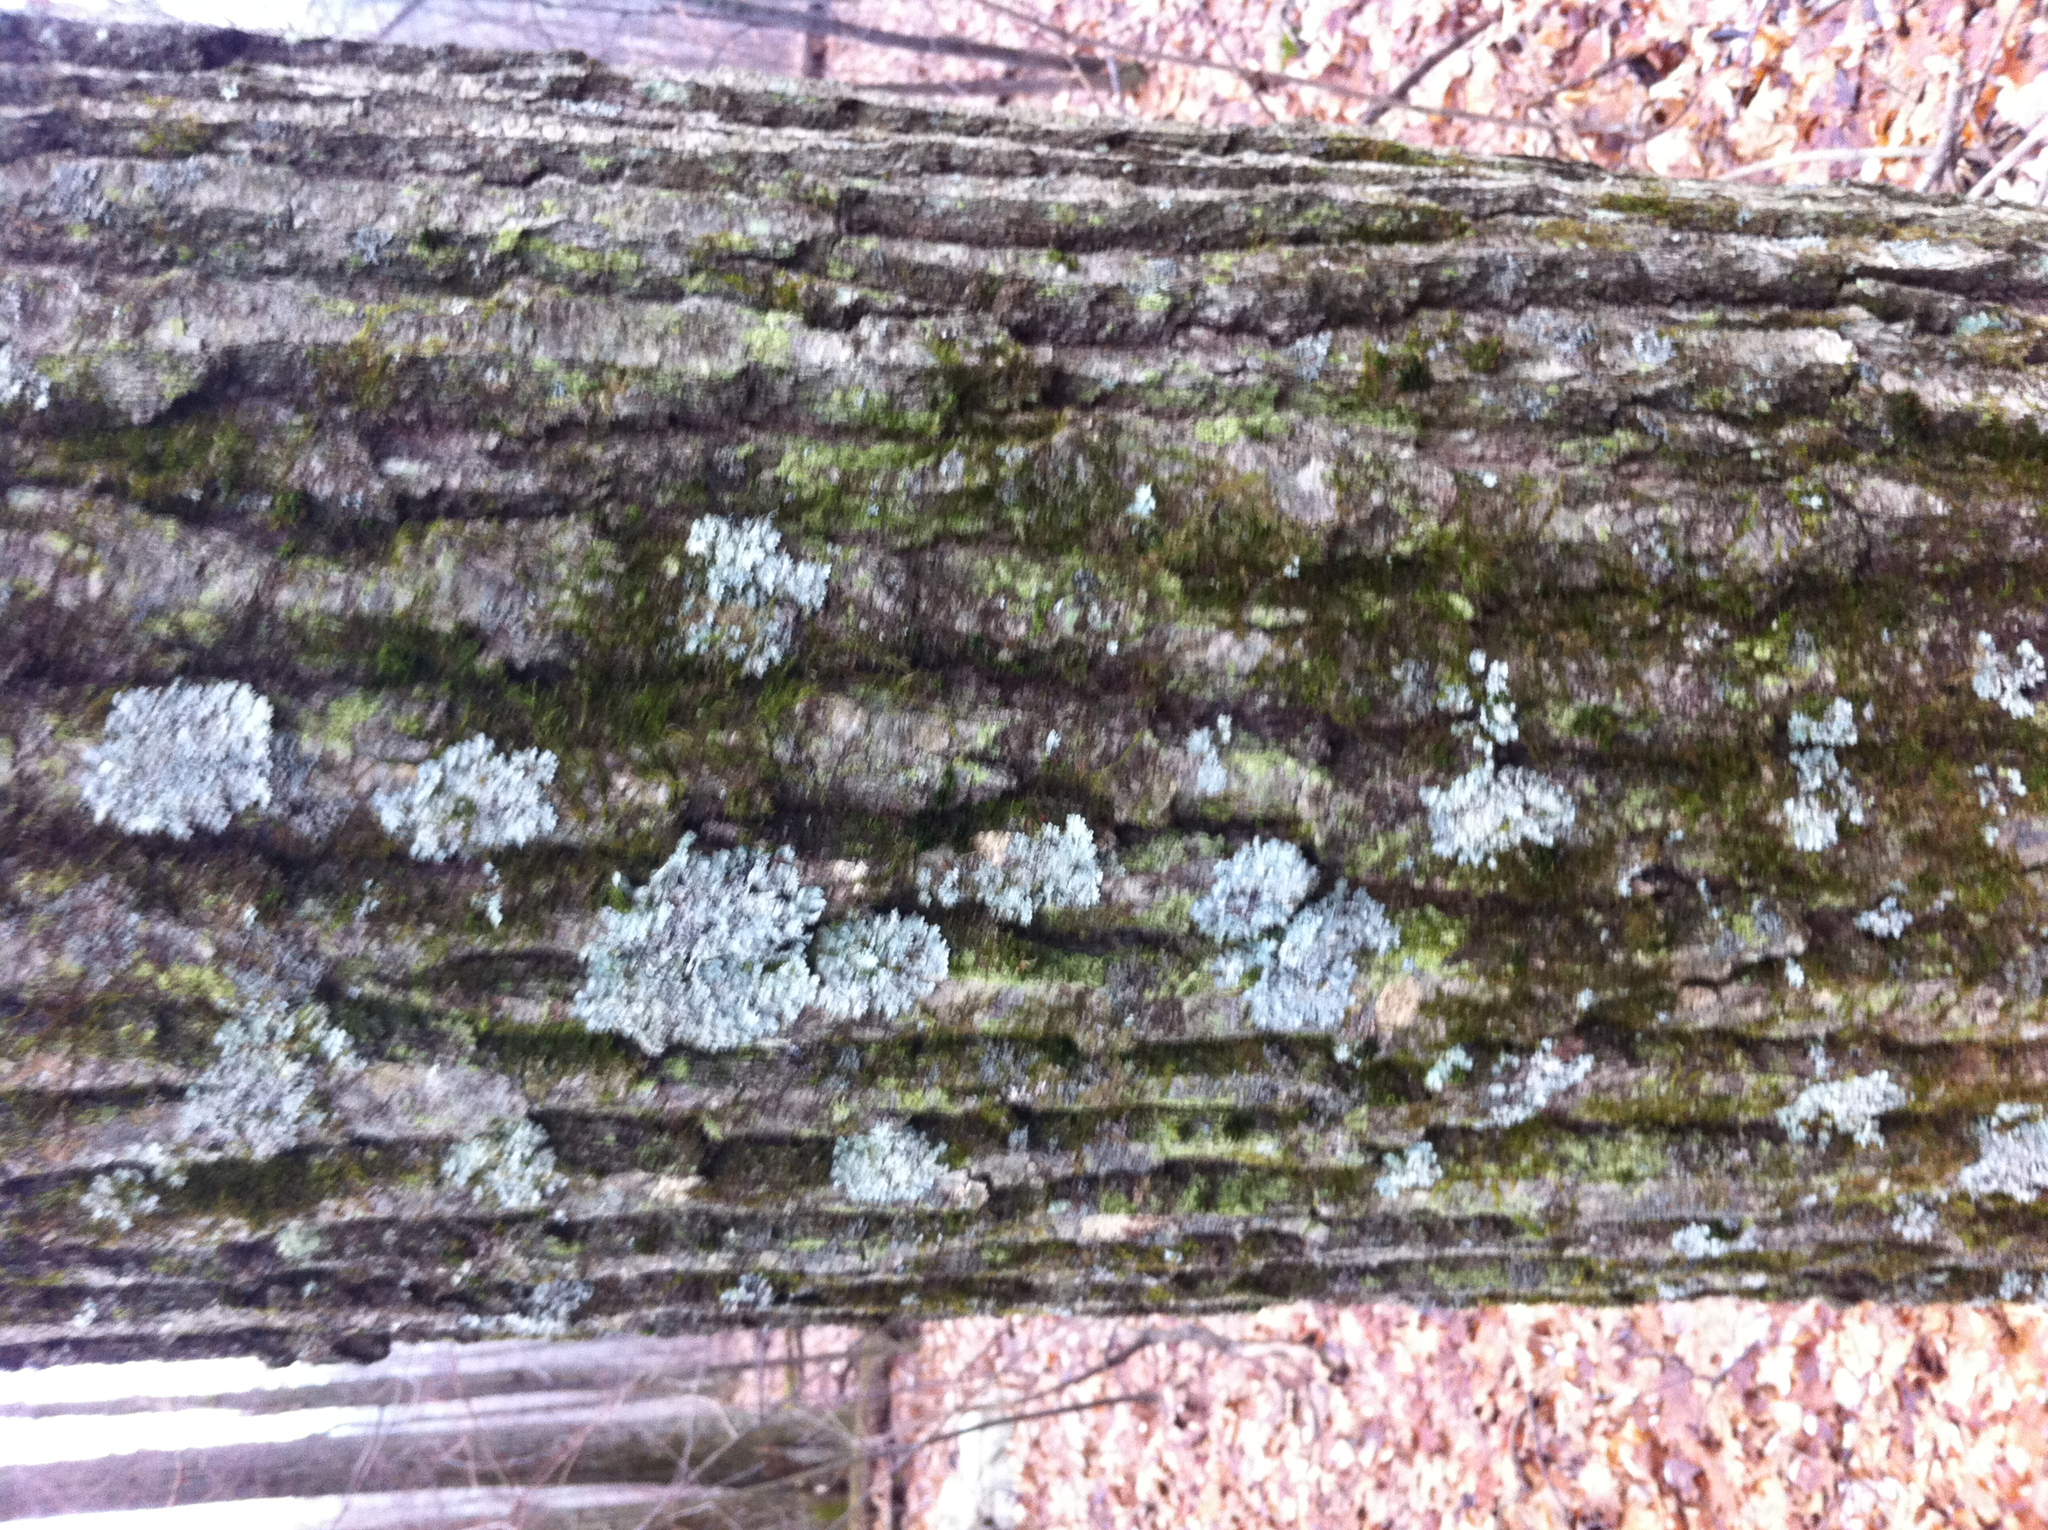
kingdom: Plantae
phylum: Tracheophyta
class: Magnoliopsida
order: Fagales
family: Fagaceae
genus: Quercus
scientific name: Quercus rubra
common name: Red oak
